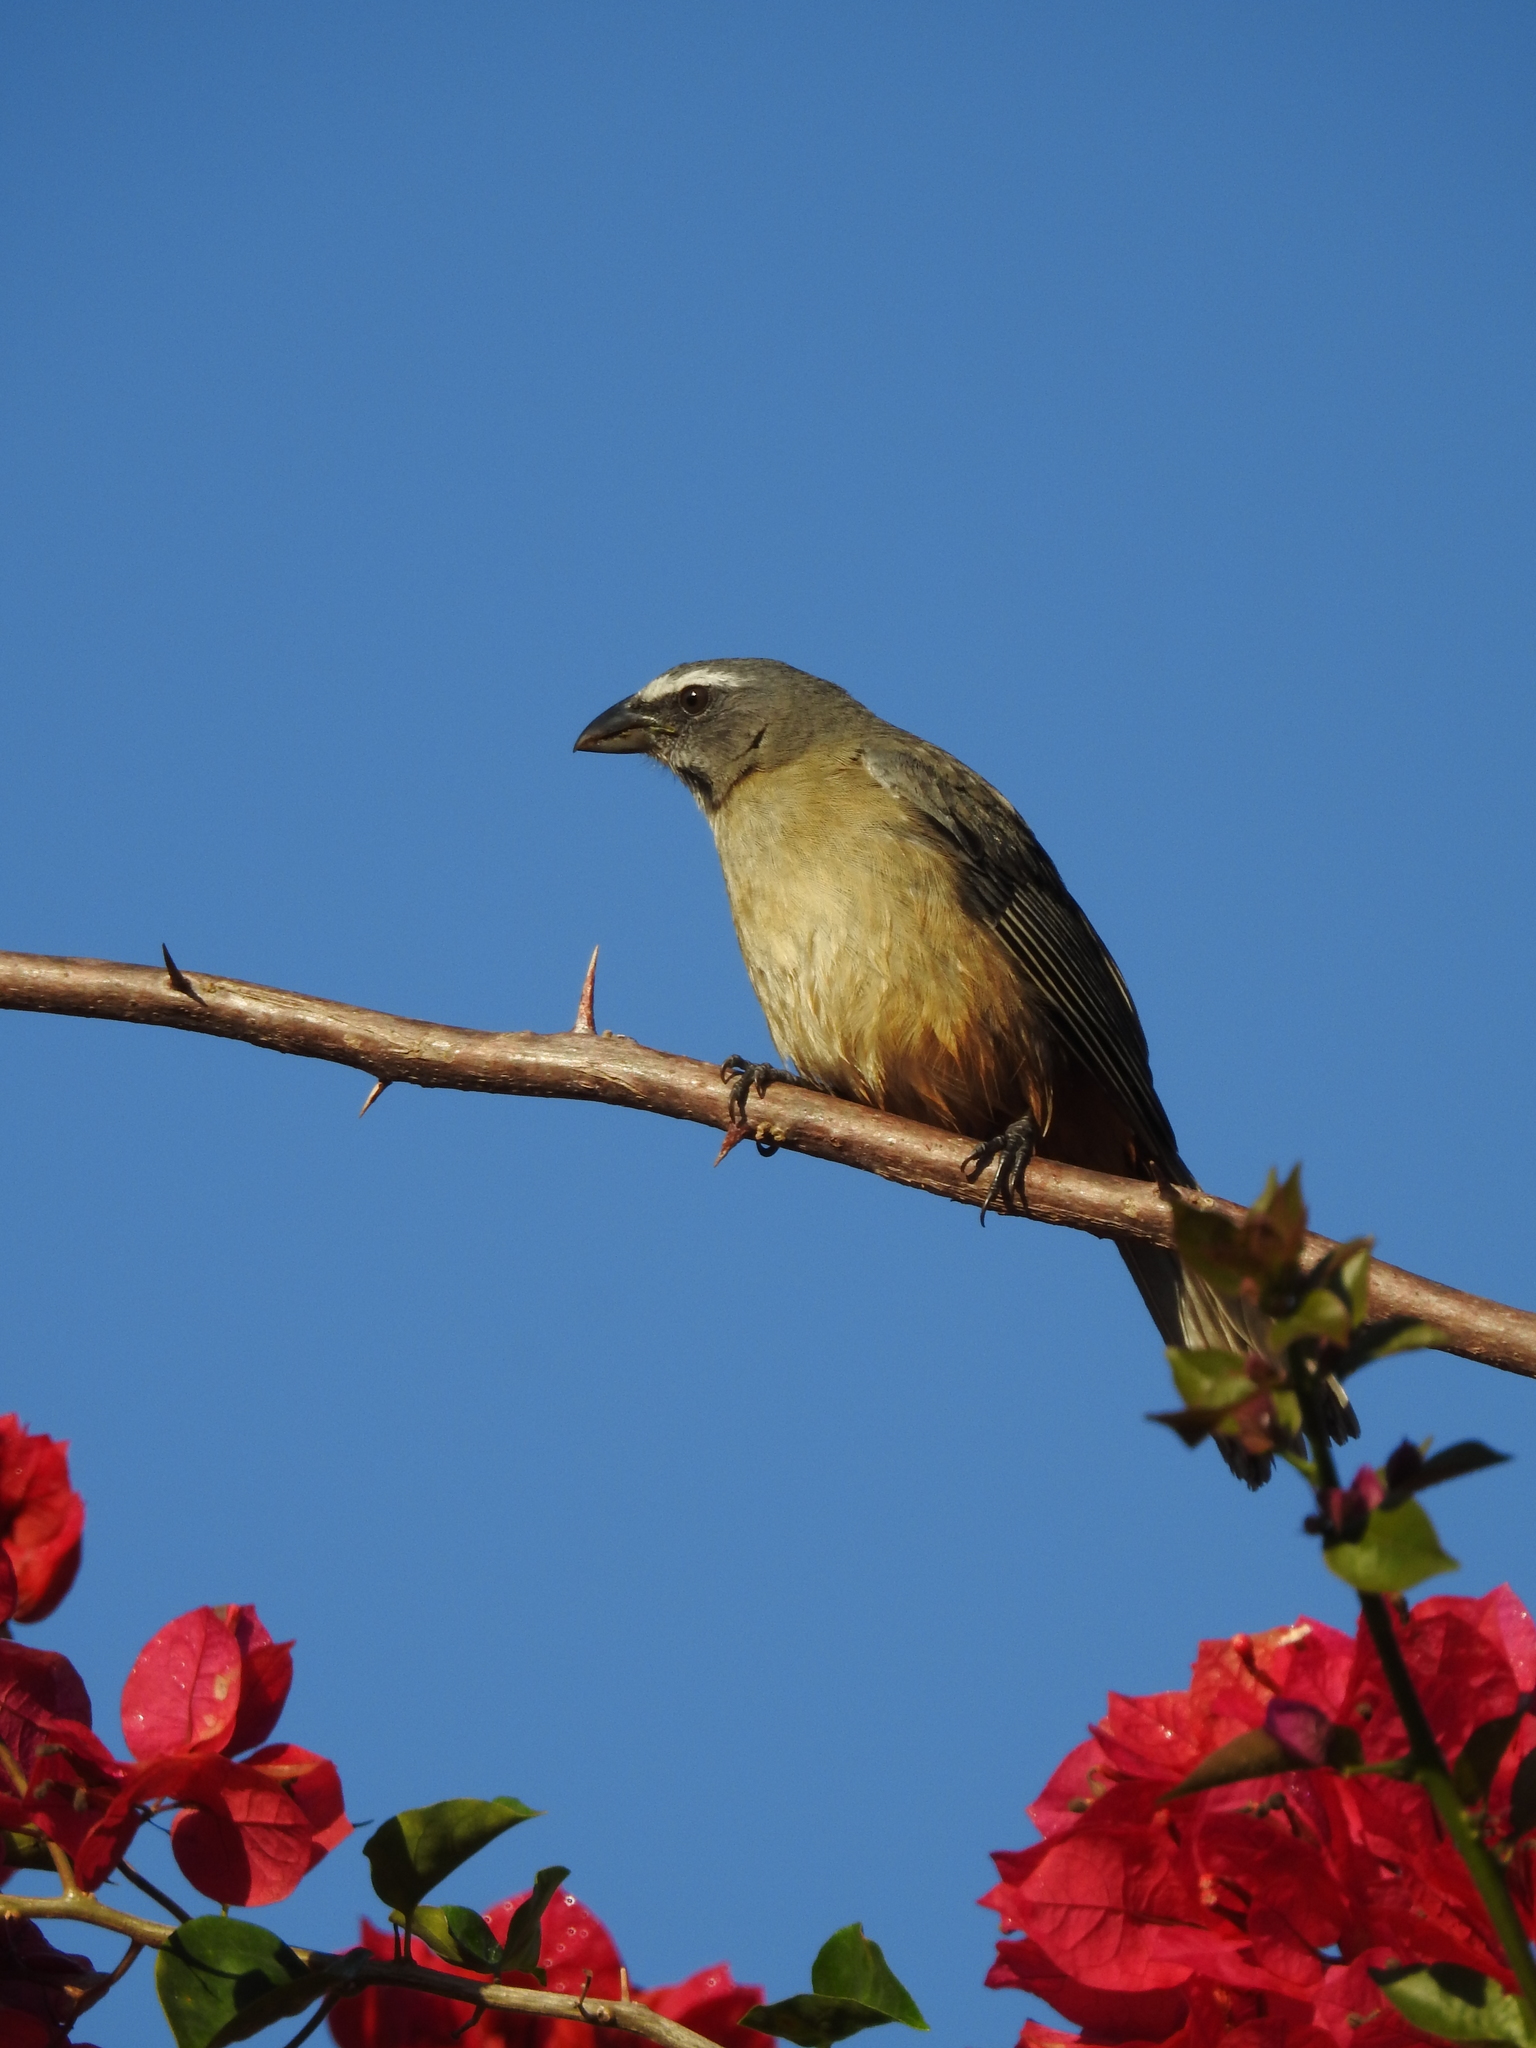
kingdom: Animalia
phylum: Chordata
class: Aves
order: Passeriformes
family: Thraupidae
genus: Saltator
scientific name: Saltator grandis
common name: Cinnamon-bellied saltator
